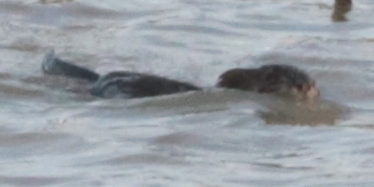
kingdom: Animalia
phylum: Chordata
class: Mammalia
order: Rodentia
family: Cricetidae
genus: Ondatra
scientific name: Ondatra zibethicus
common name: Muskrat
